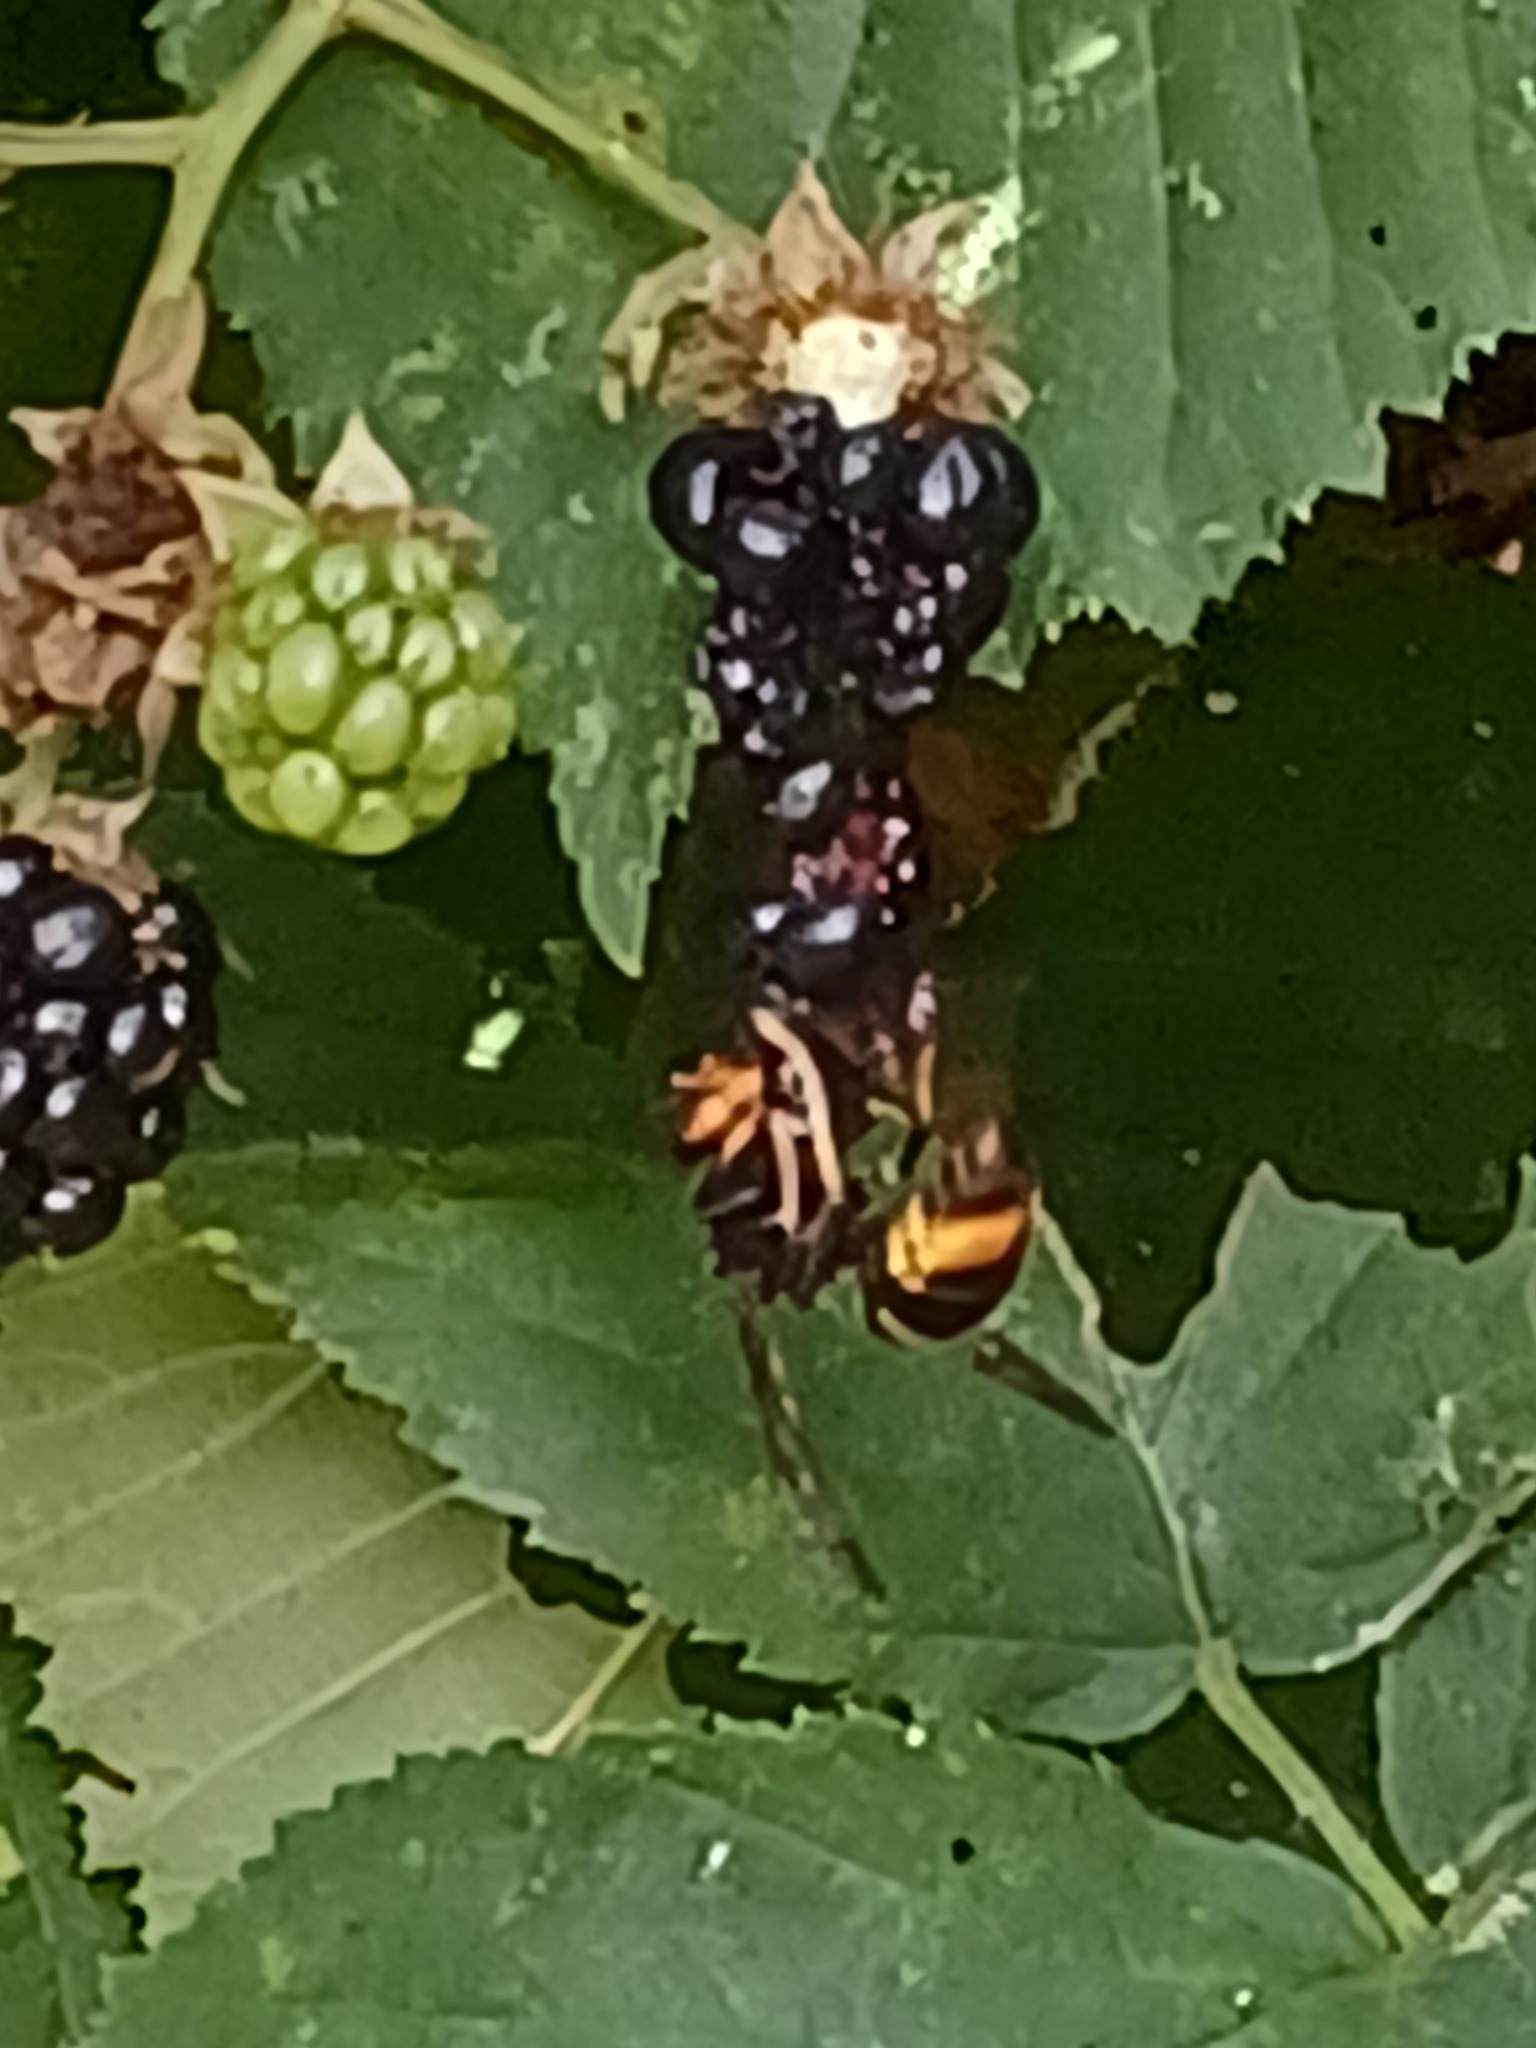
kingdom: Animalia
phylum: Arthropoda
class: Insecta
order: Hymenoptera
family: Vespidae
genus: Vespa
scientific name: Vespa velutina
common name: Asian hornet
